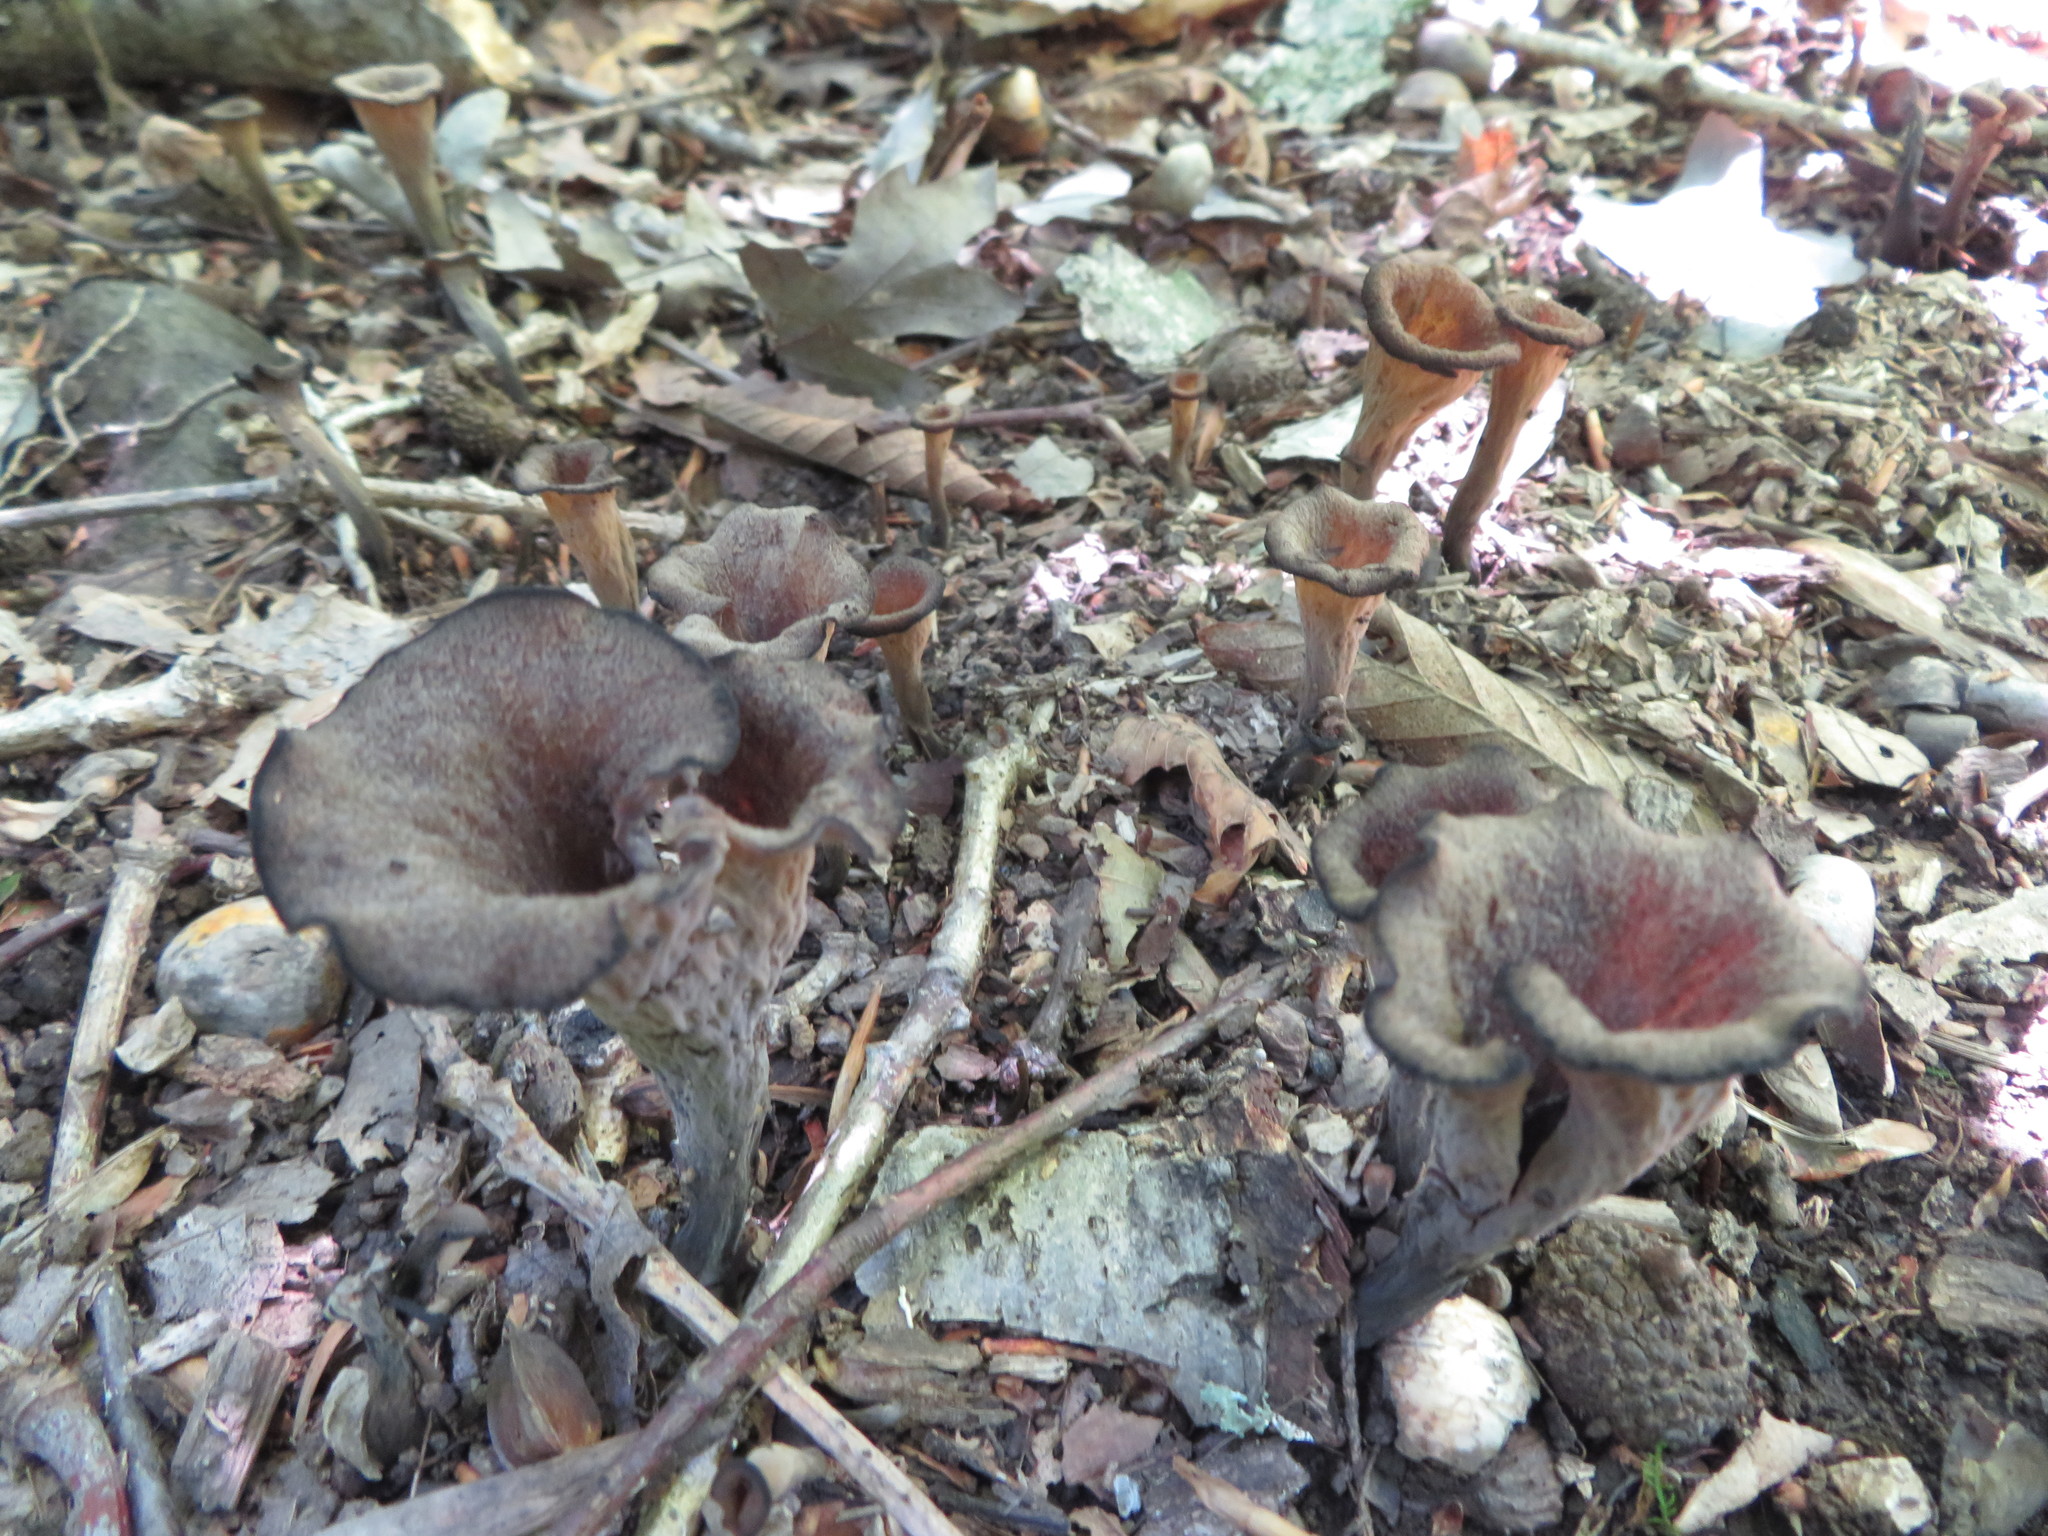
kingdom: Fungi
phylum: Basidiomycota
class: Agaricomycetes
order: Cantharellales
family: Hydnaceae
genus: Craterellus
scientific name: Craterellus cornucopioides
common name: Horn of plenty
